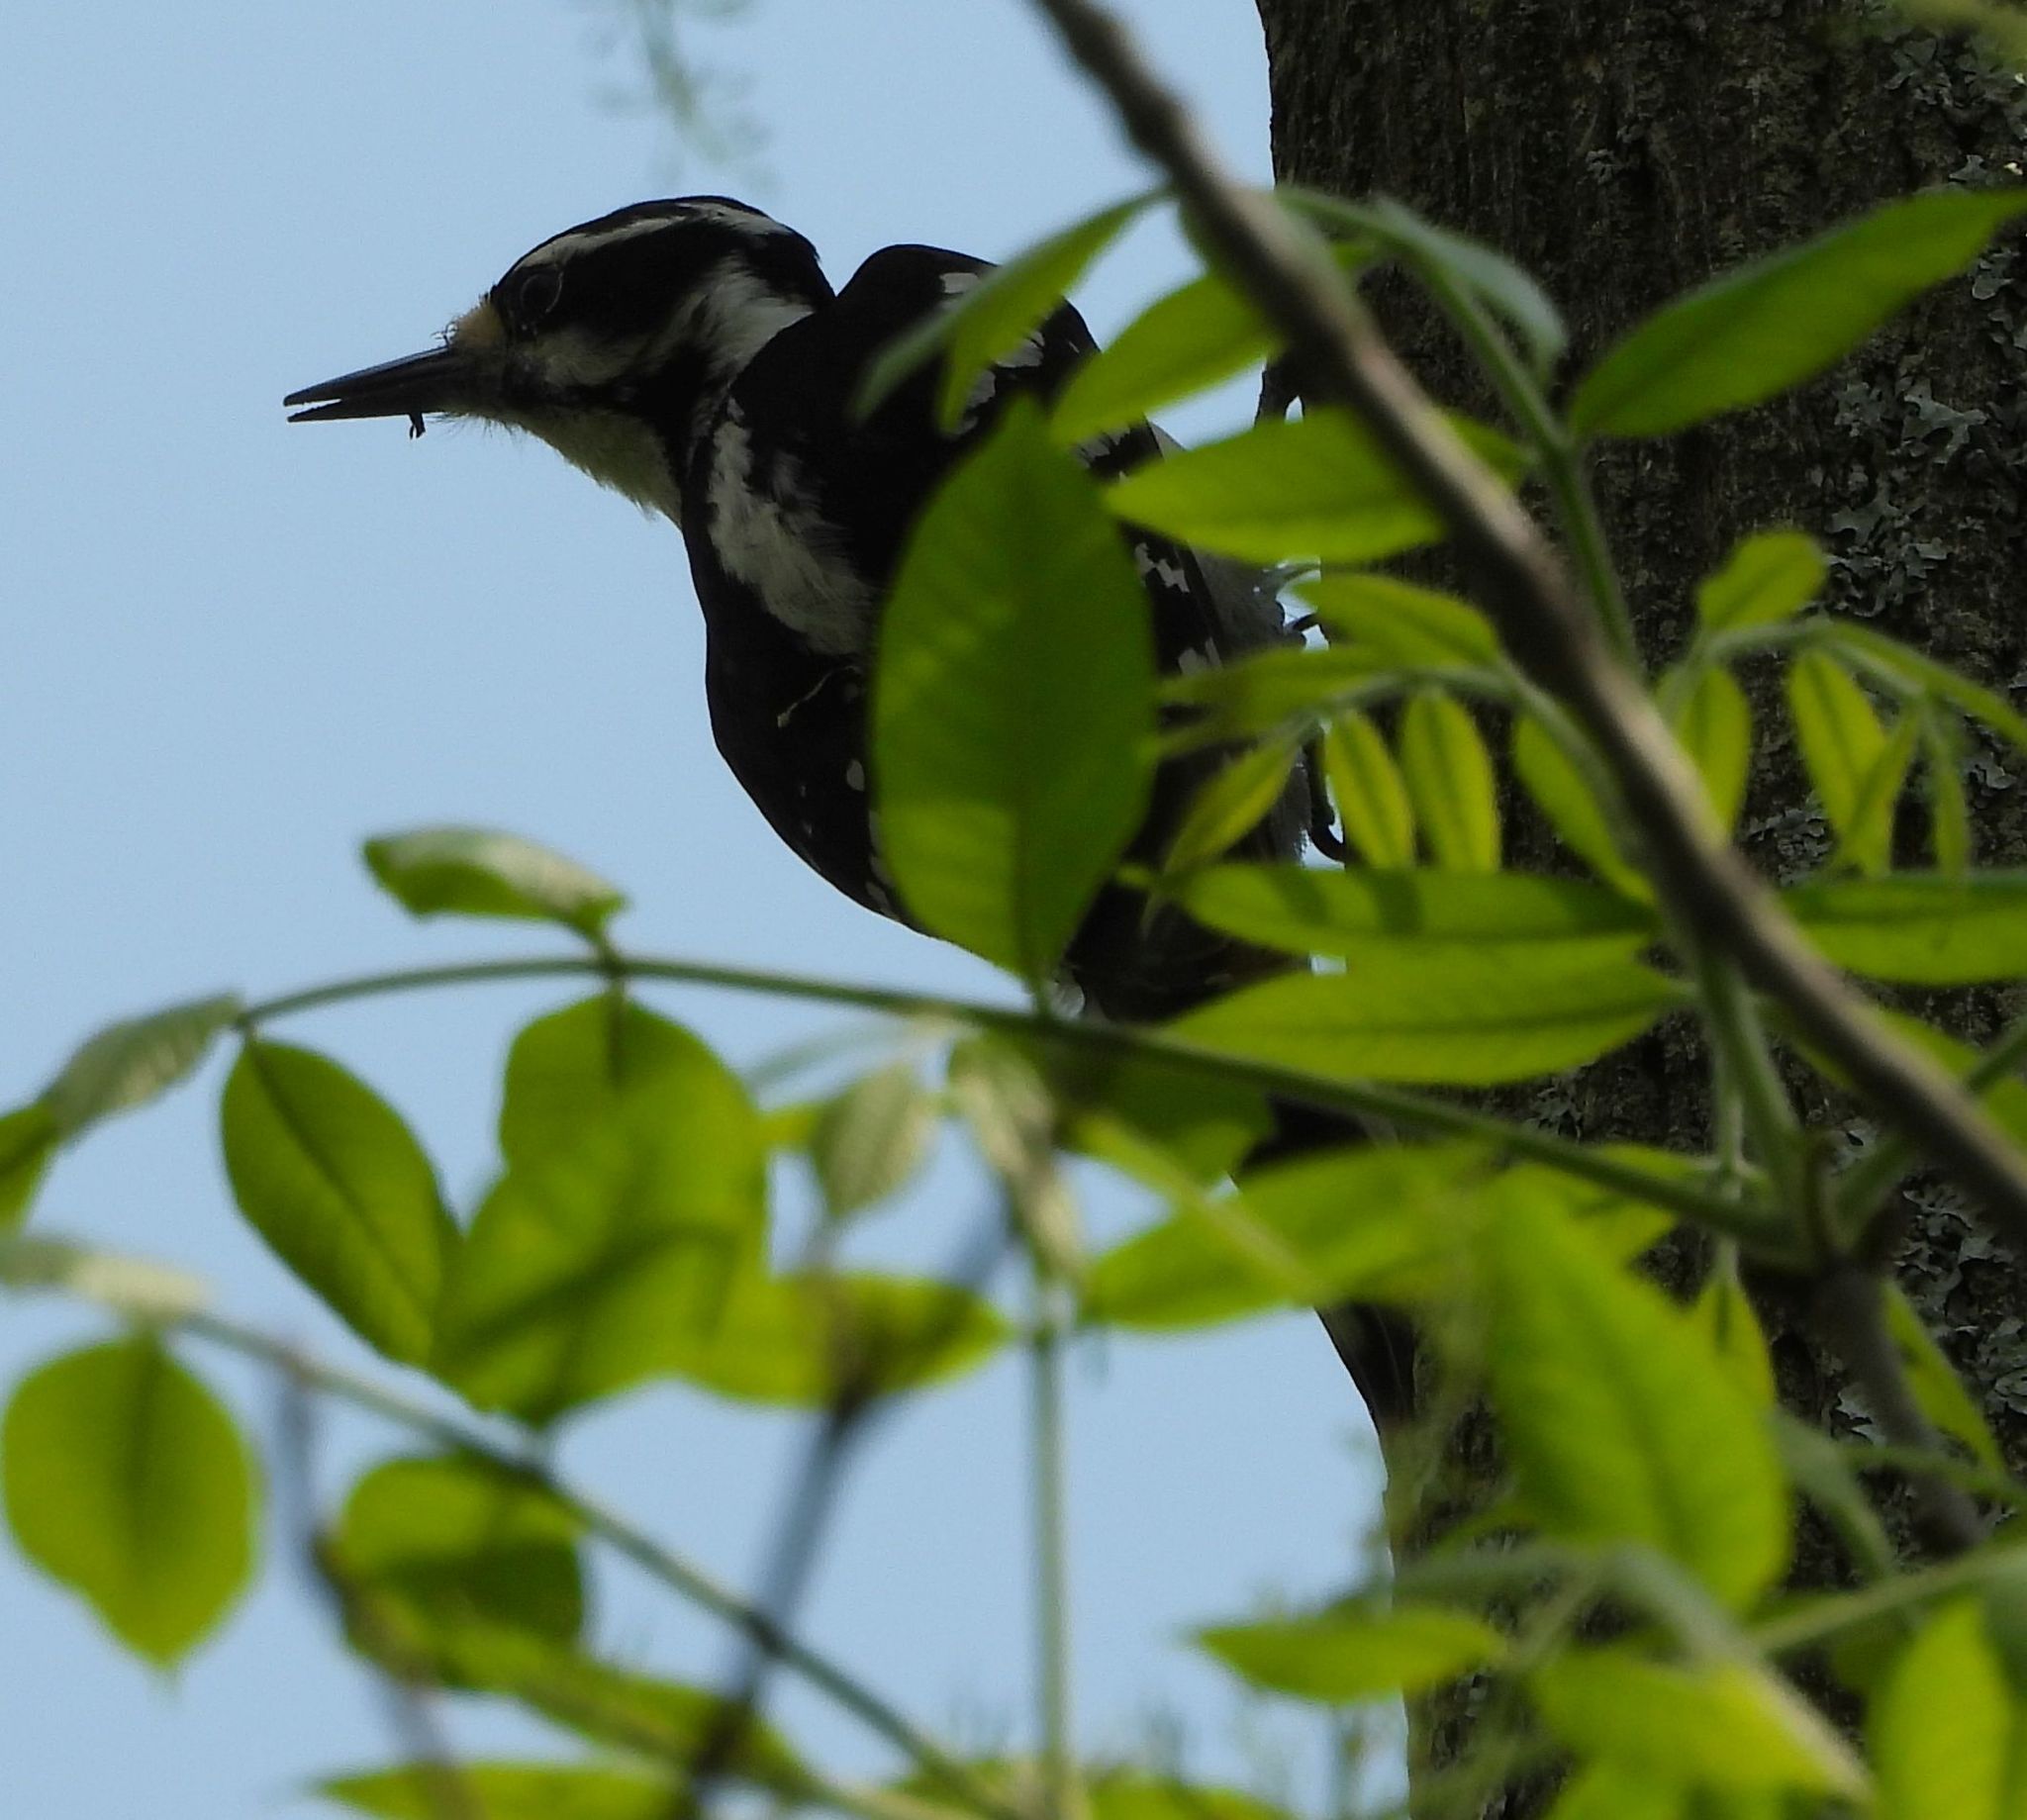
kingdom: Animalia
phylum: Chordata
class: Aves
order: Piciformes
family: Picidae
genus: Leuconotopicus
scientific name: Leuconotopicus villosus
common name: Hairy woodpecker
